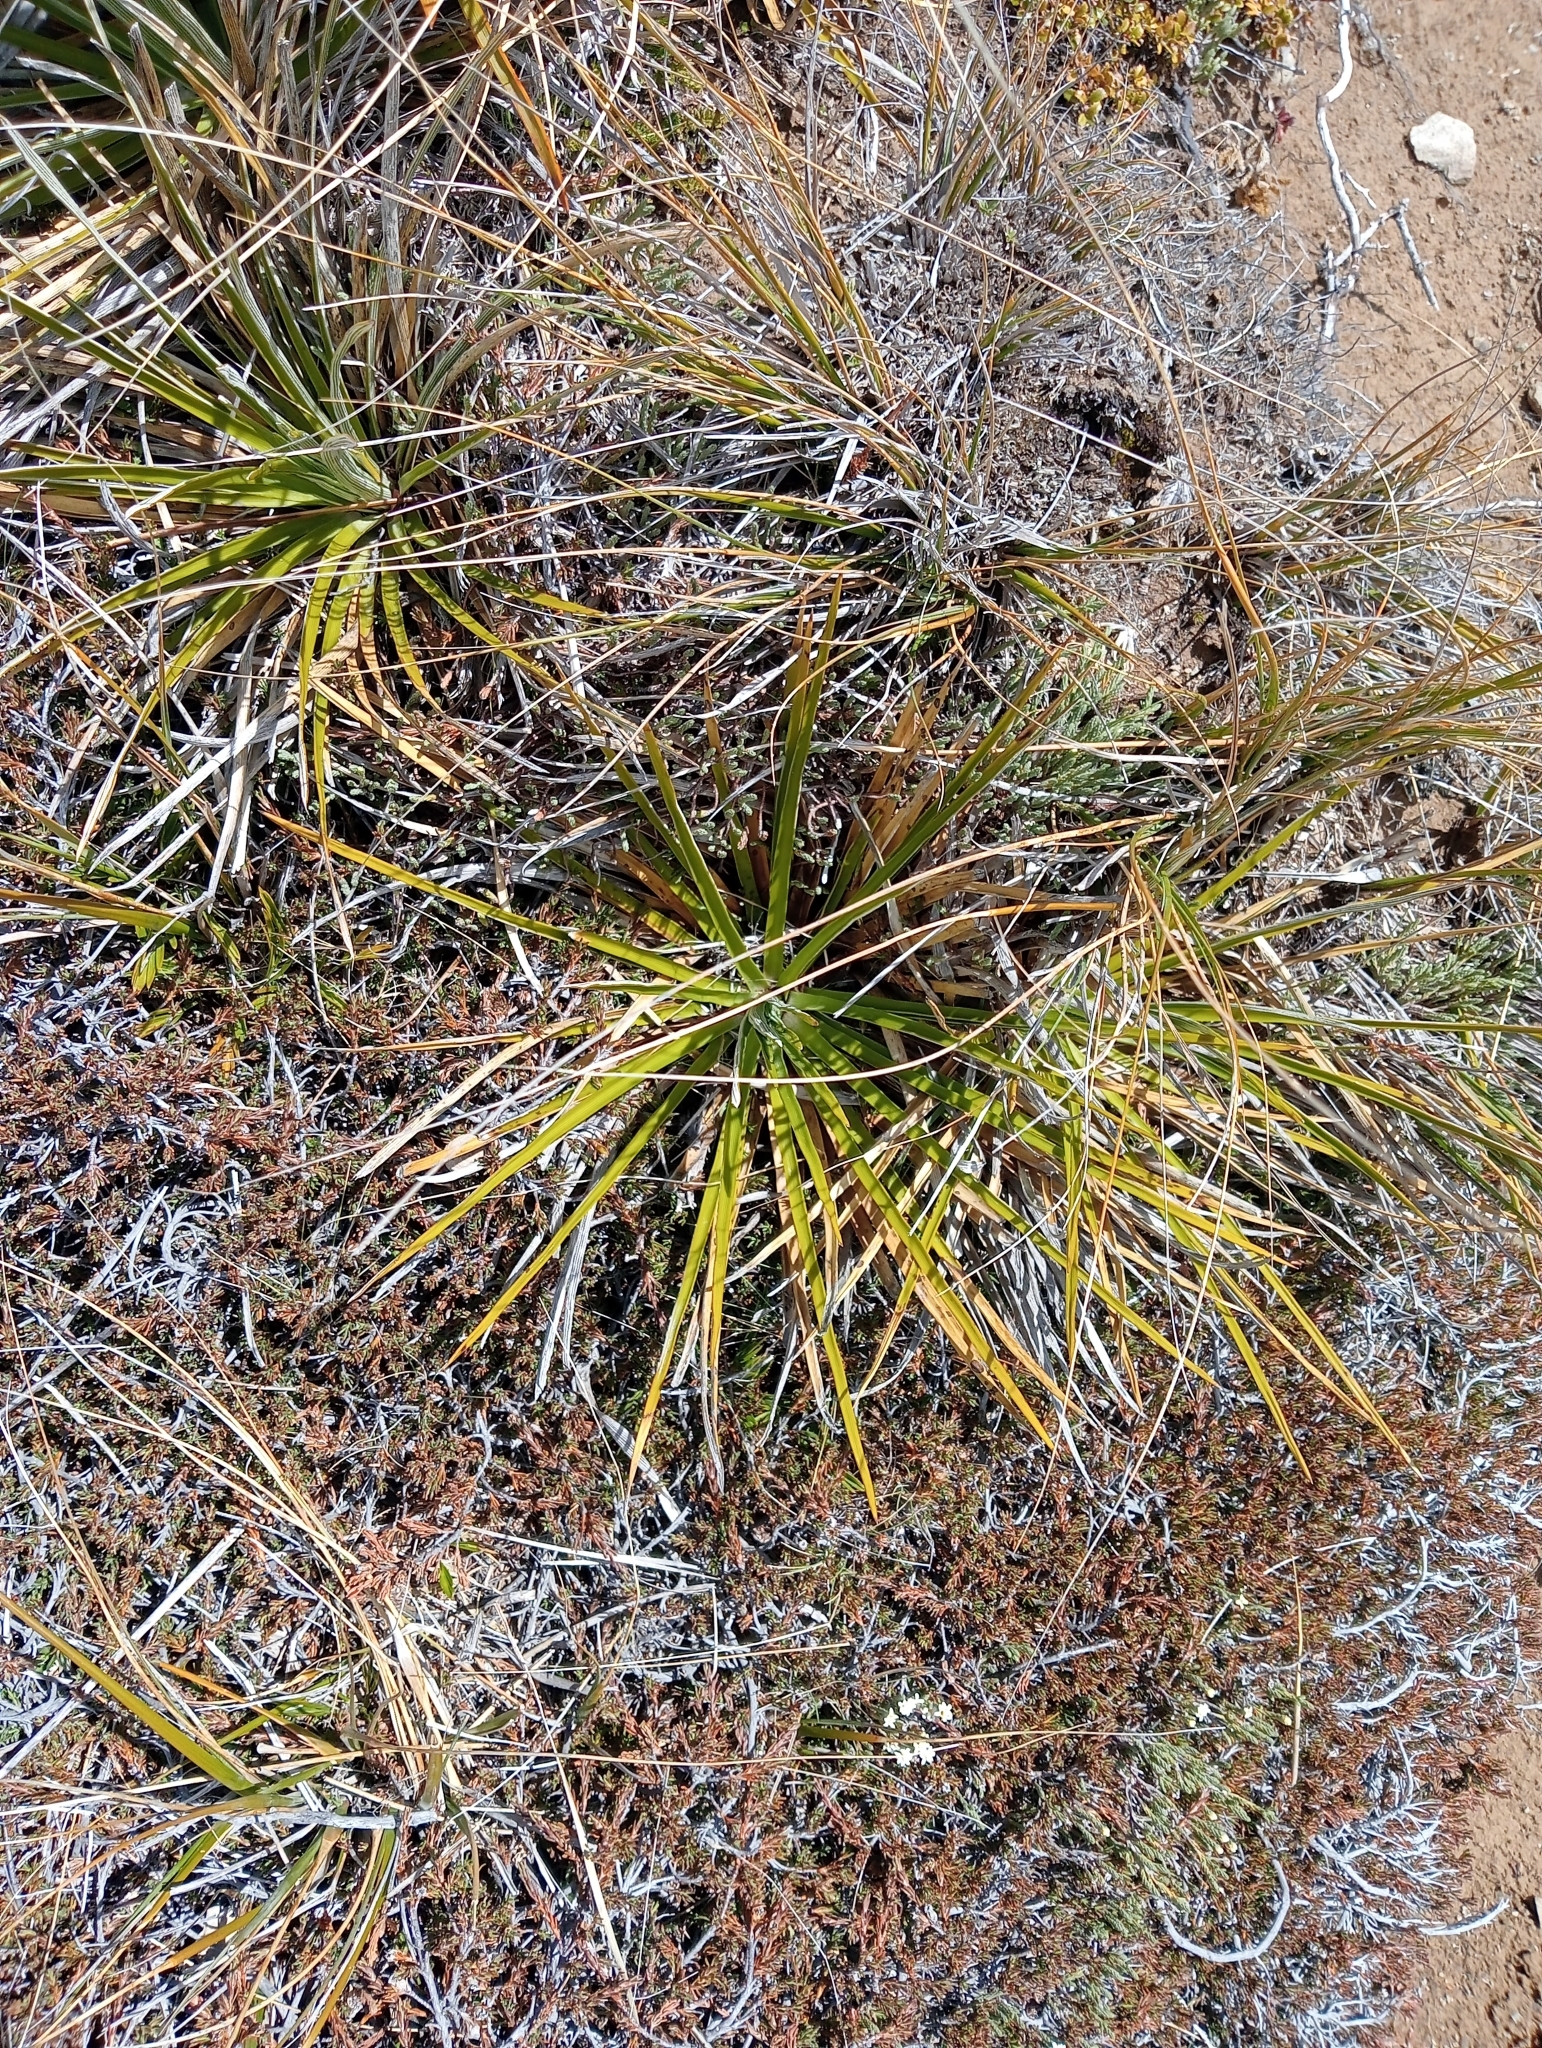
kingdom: Plantae
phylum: Tracheophyta
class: Magnoliopsida
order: Asterales
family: Asteraceae
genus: Celmisia
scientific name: Celmisia lyallii
